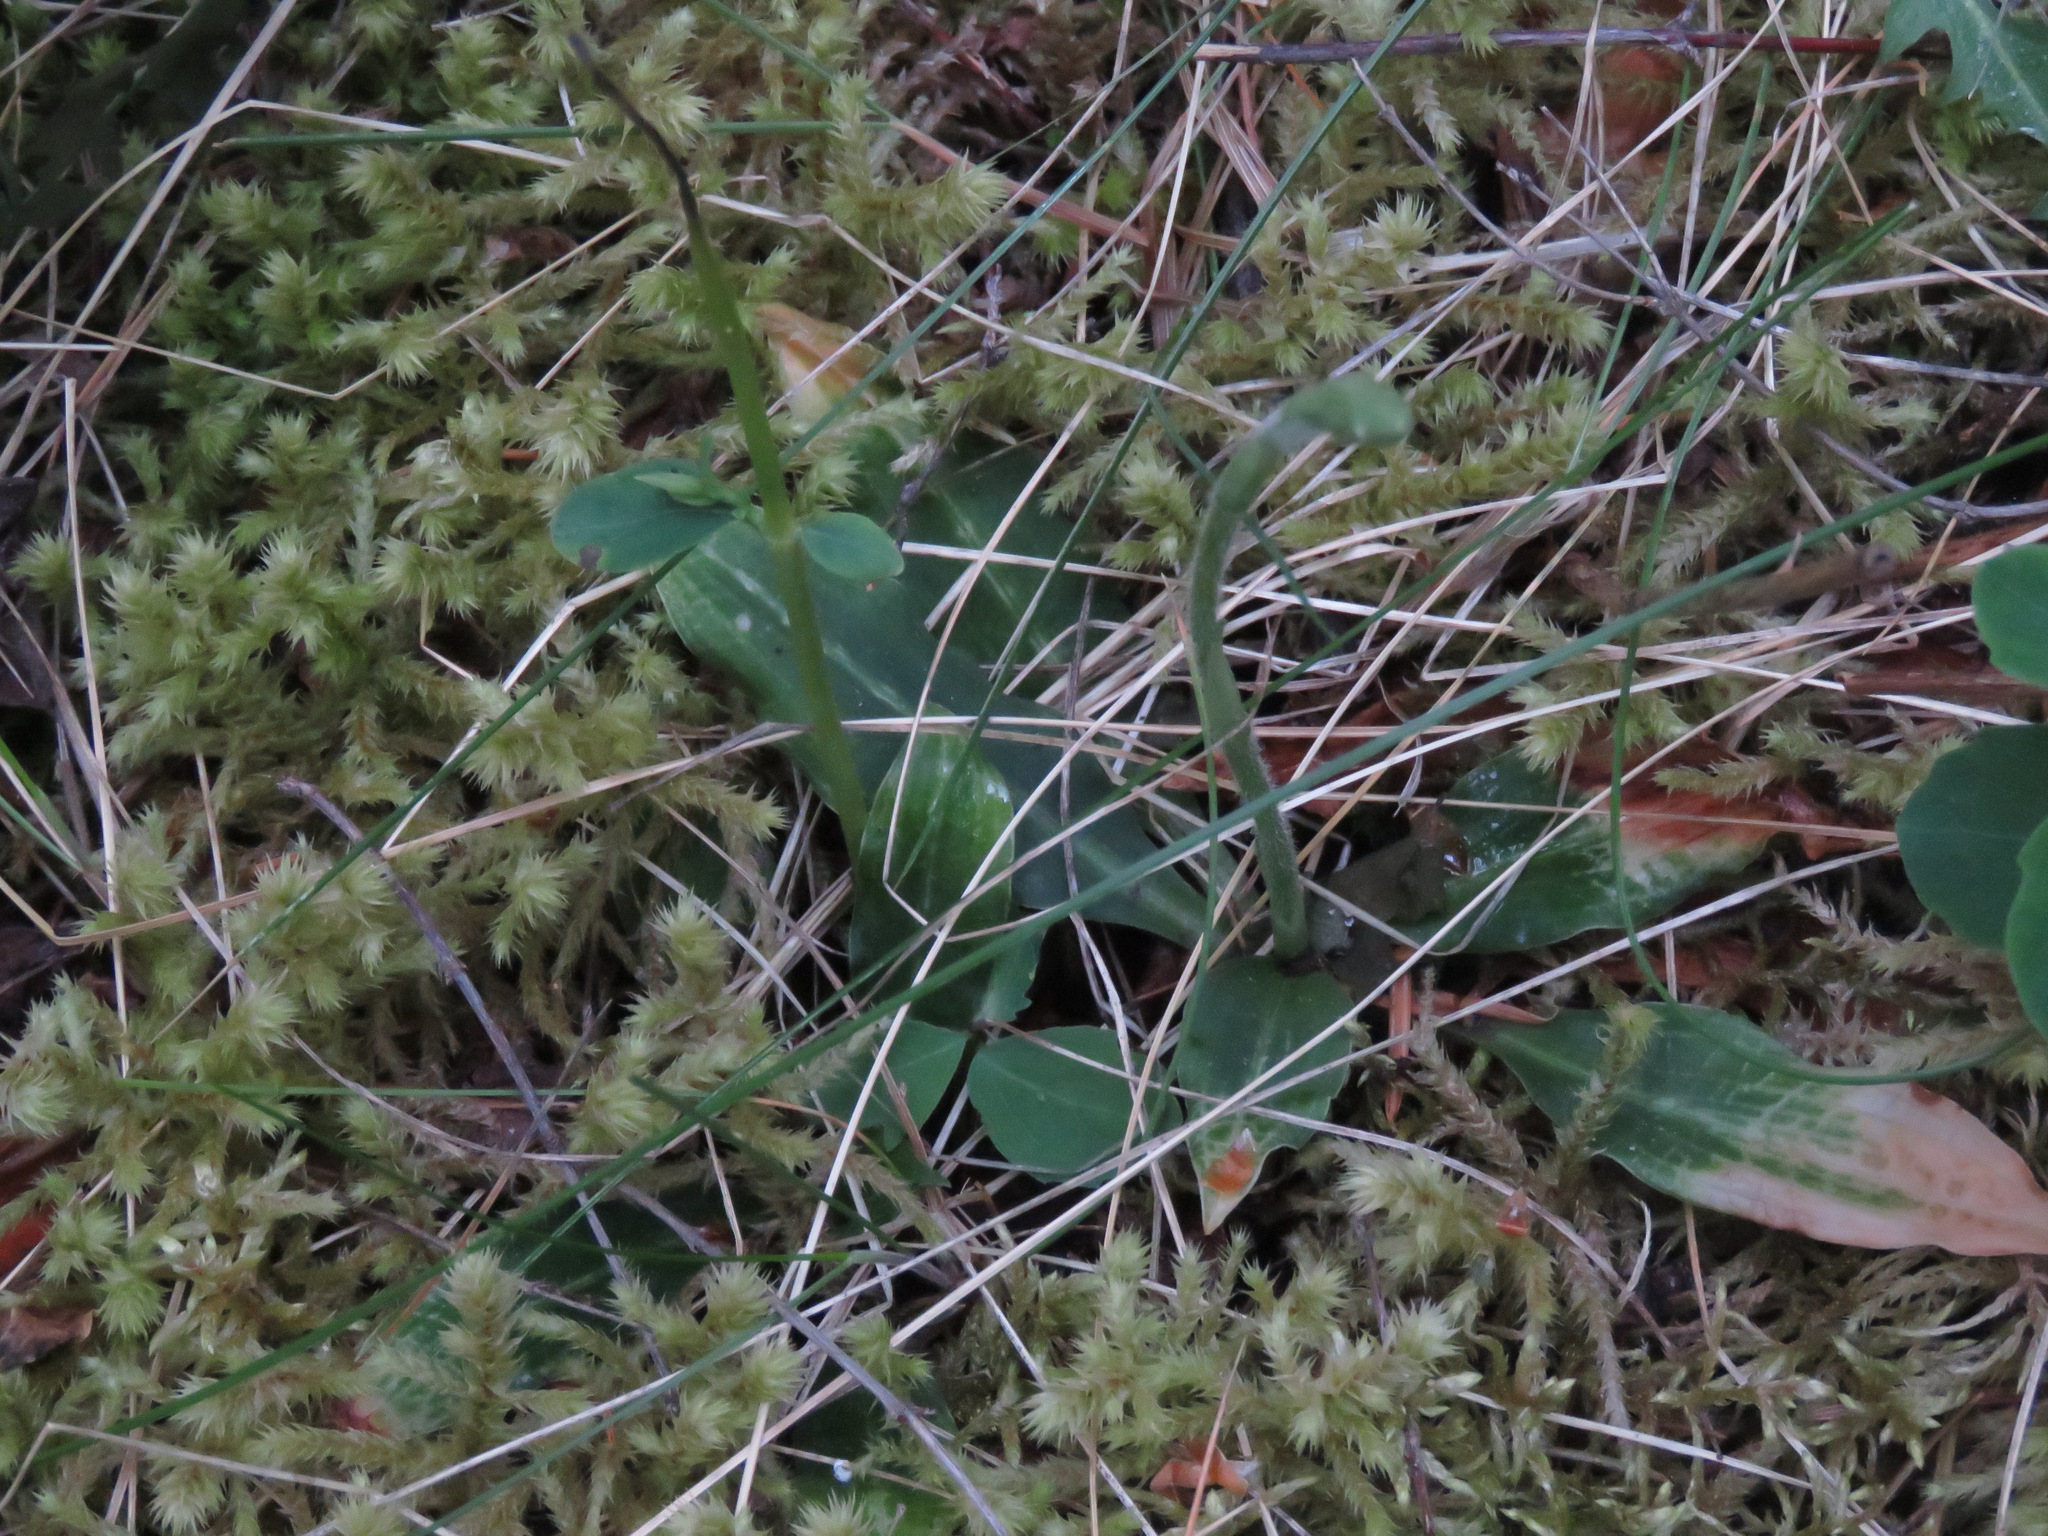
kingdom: Plantae
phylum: Tracheophyta
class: Liliopsida
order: Asparagales
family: Orchidaceae
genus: Goodyera
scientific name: Goodyera oblongifolia
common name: Giant rattlesnake-plantain
